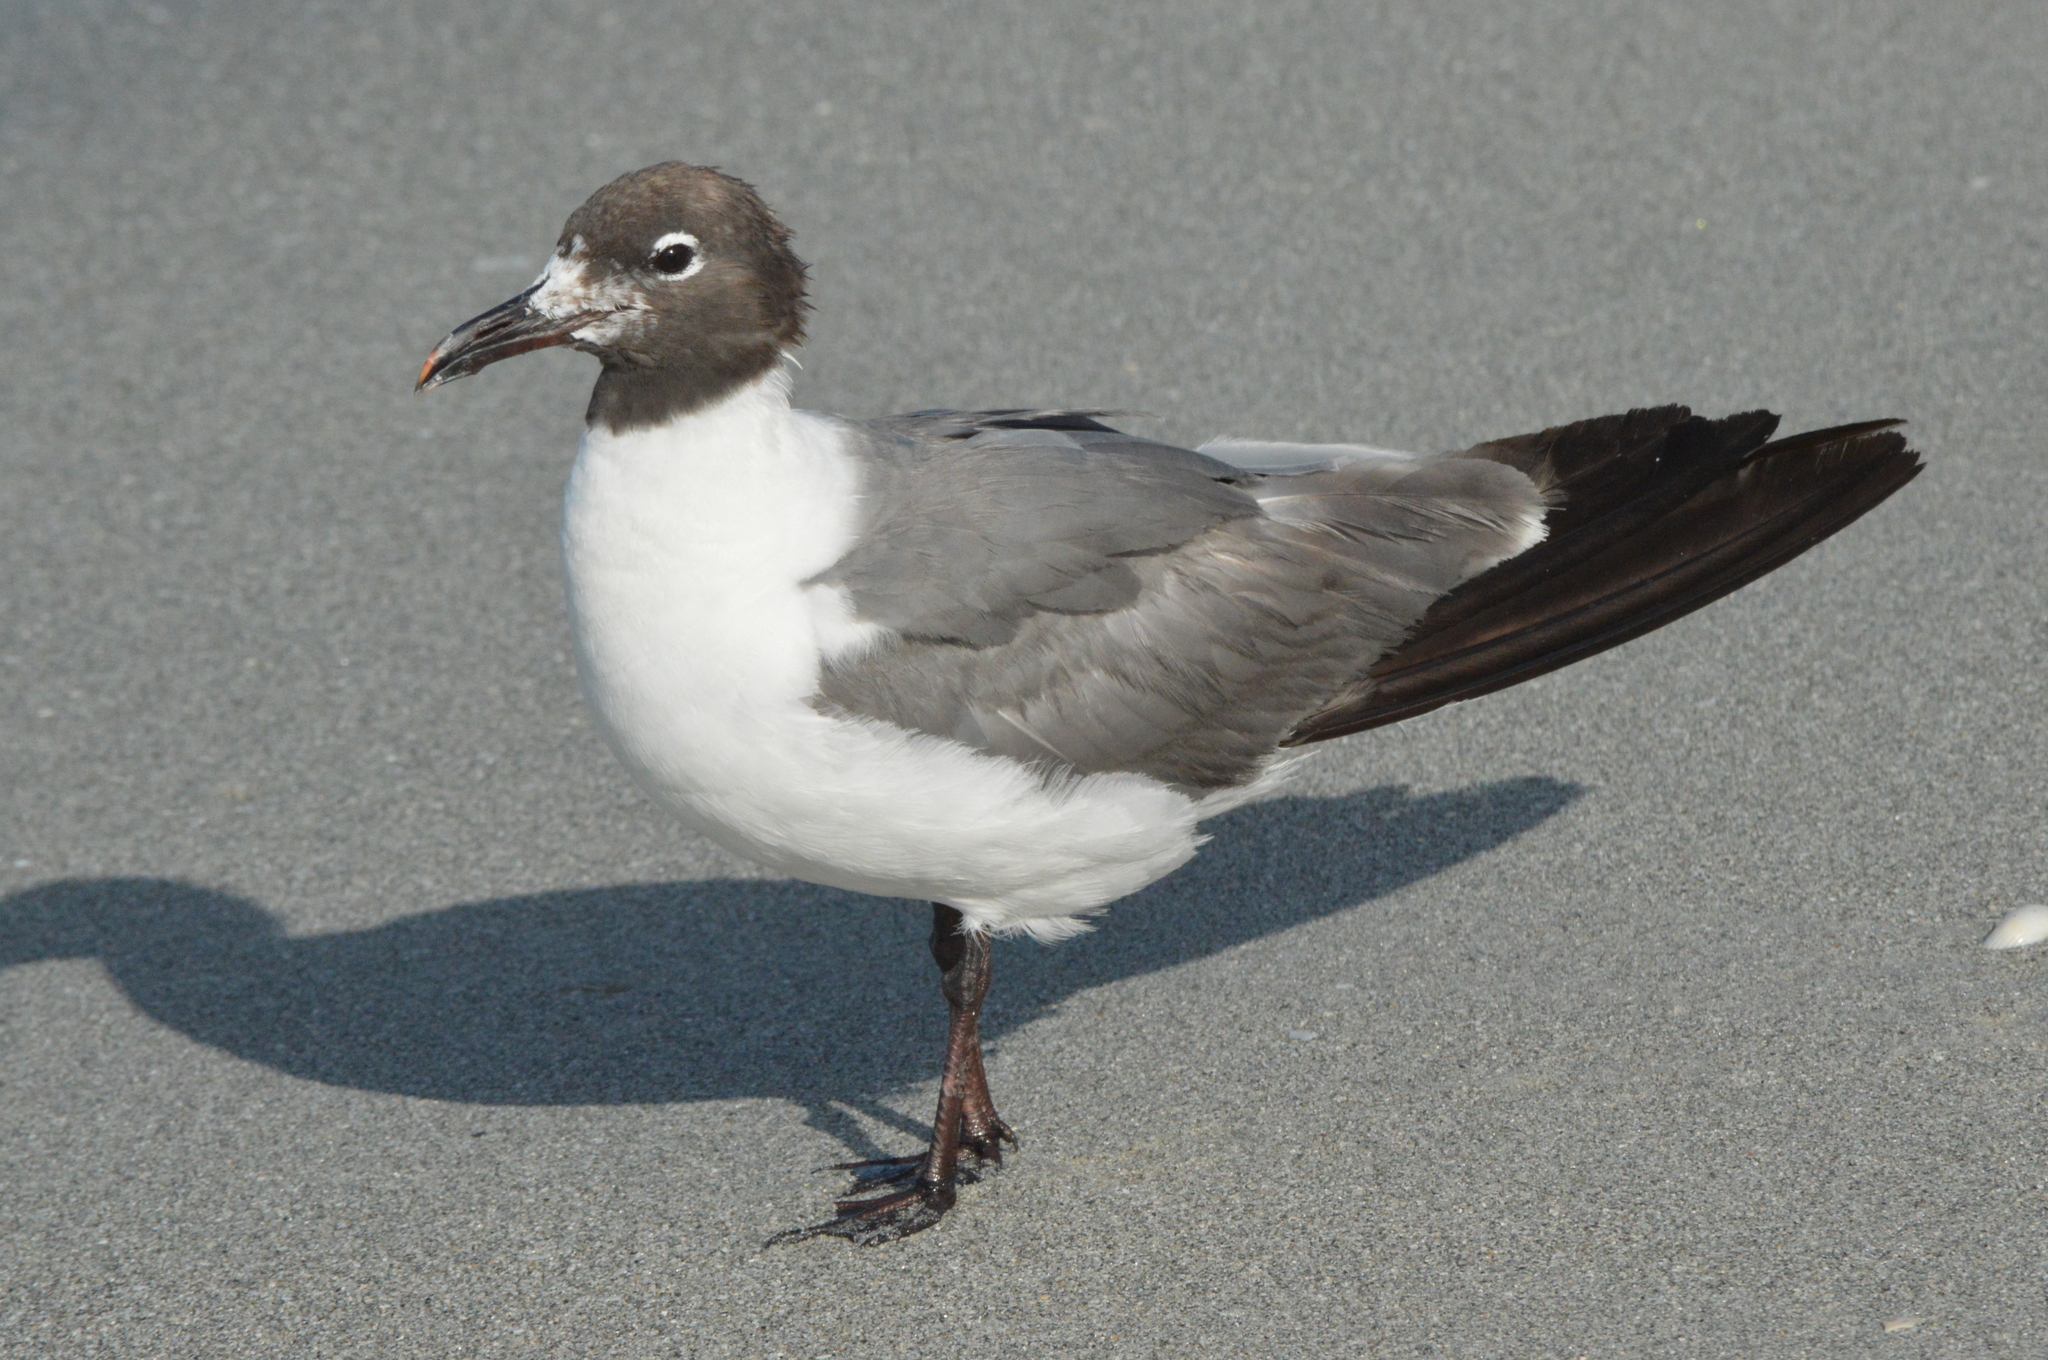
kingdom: Animalia
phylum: Chordata
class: Aves
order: Charadriiformes
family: Laridae
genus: Leucophaeus
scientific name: Leucophaeus atricilla
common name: Laughing gull
